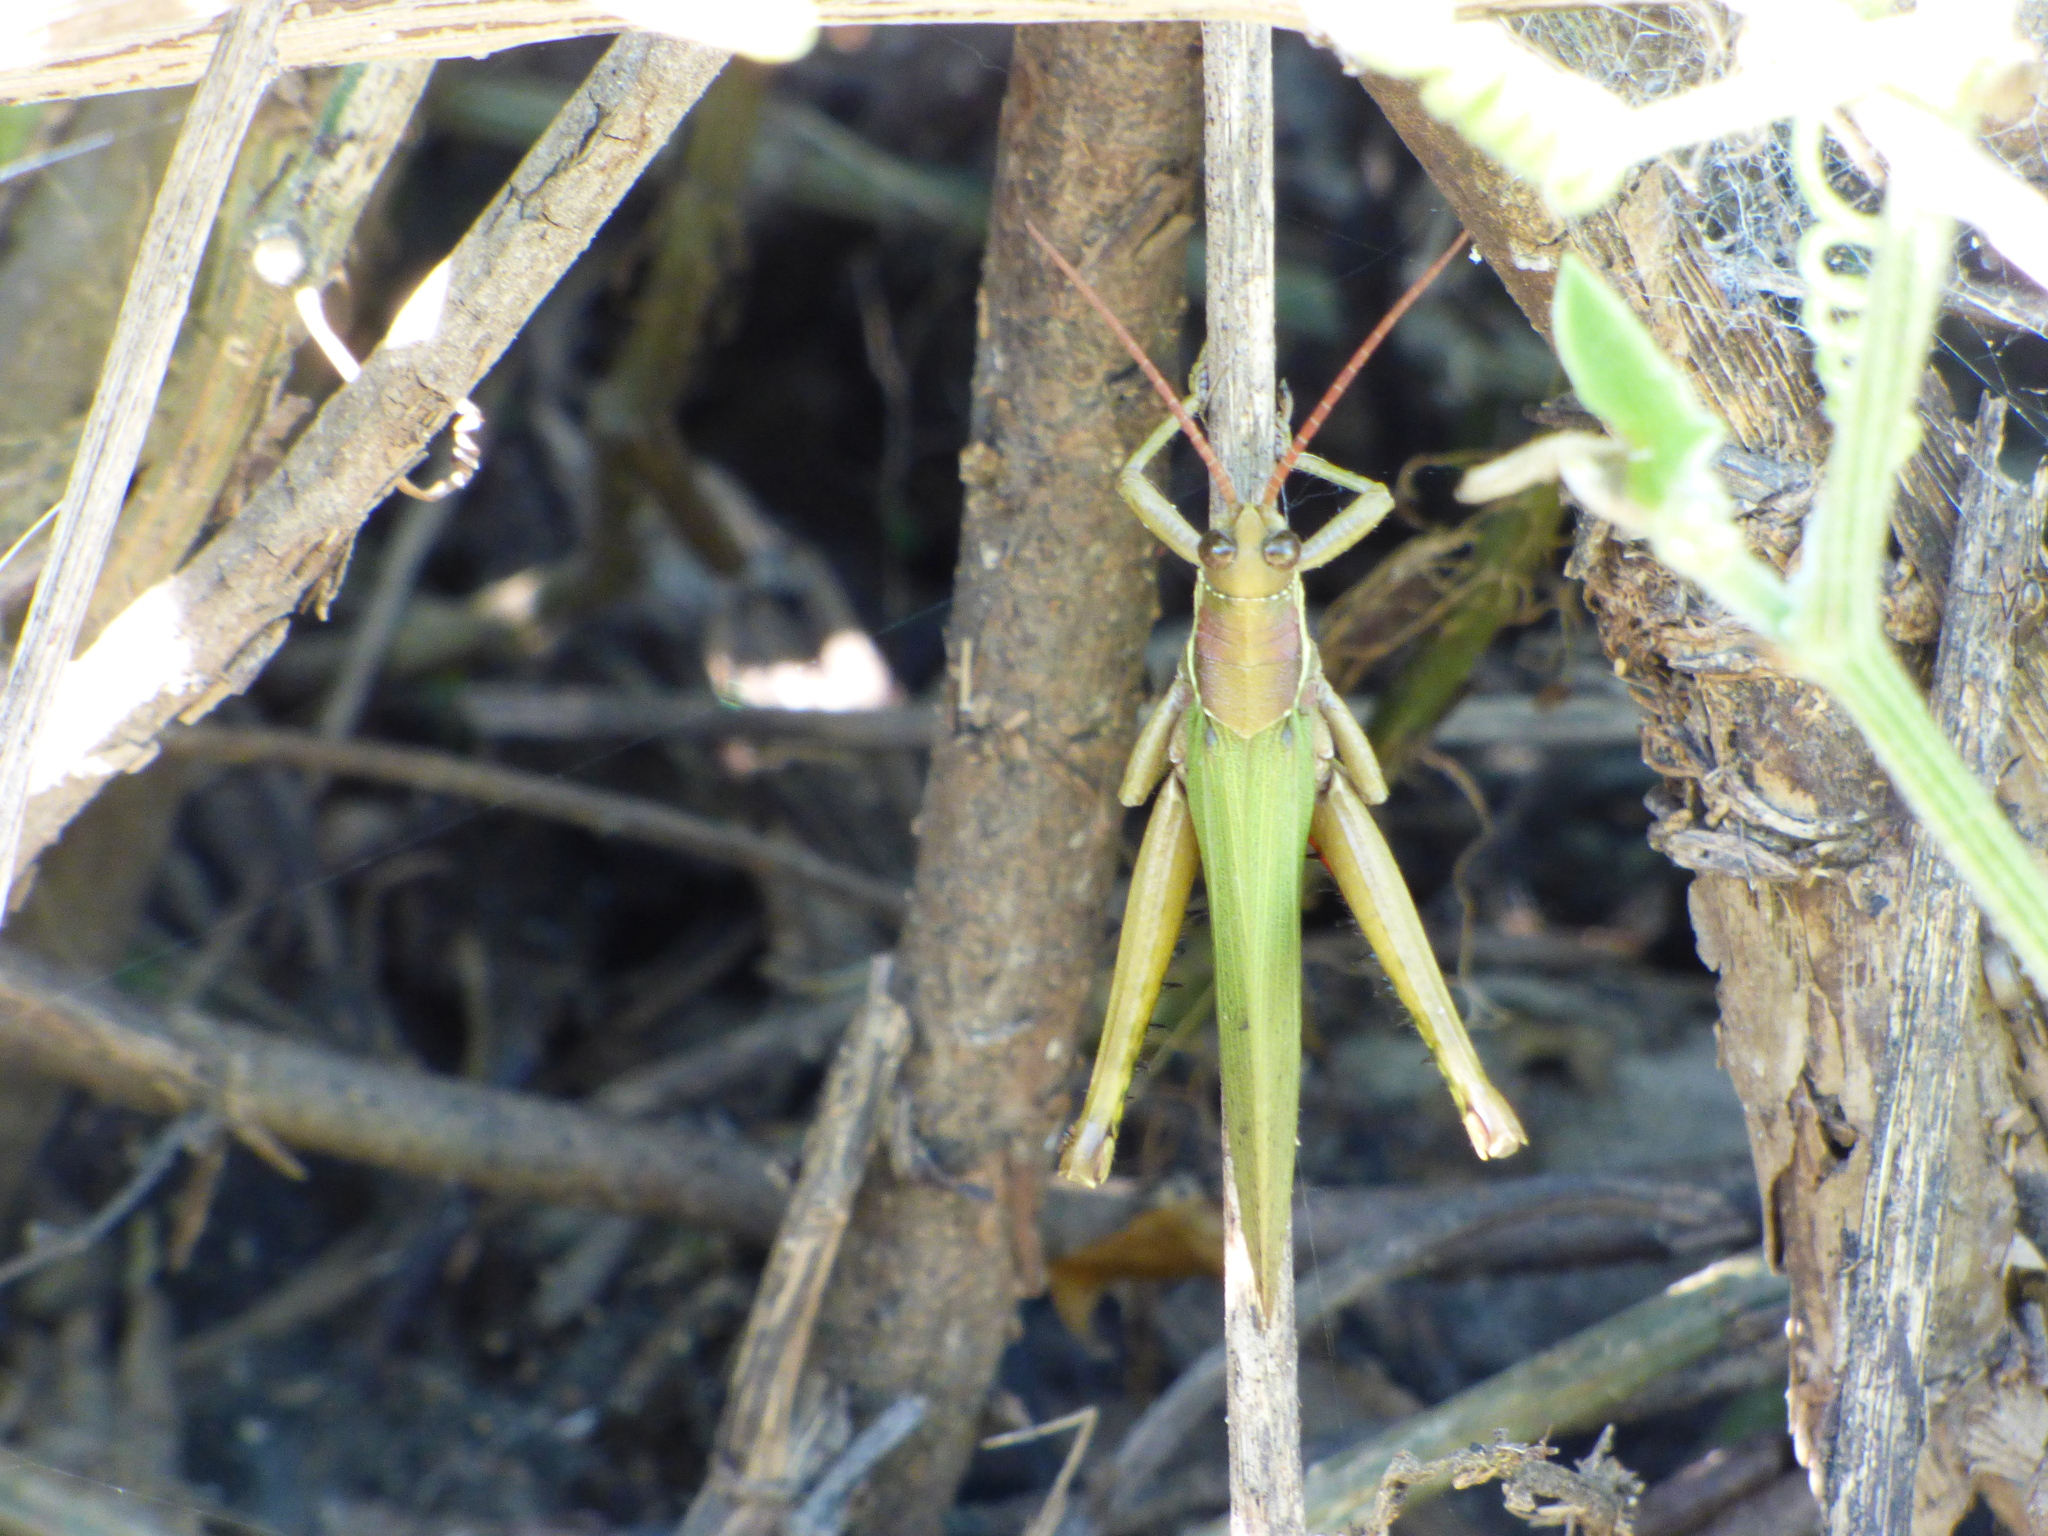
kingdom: Animalia
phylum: Arthropoda
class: Insecta
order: Orthoptera
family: Romaleidae
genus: Coryacris
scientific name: Coryacris angustipennis
